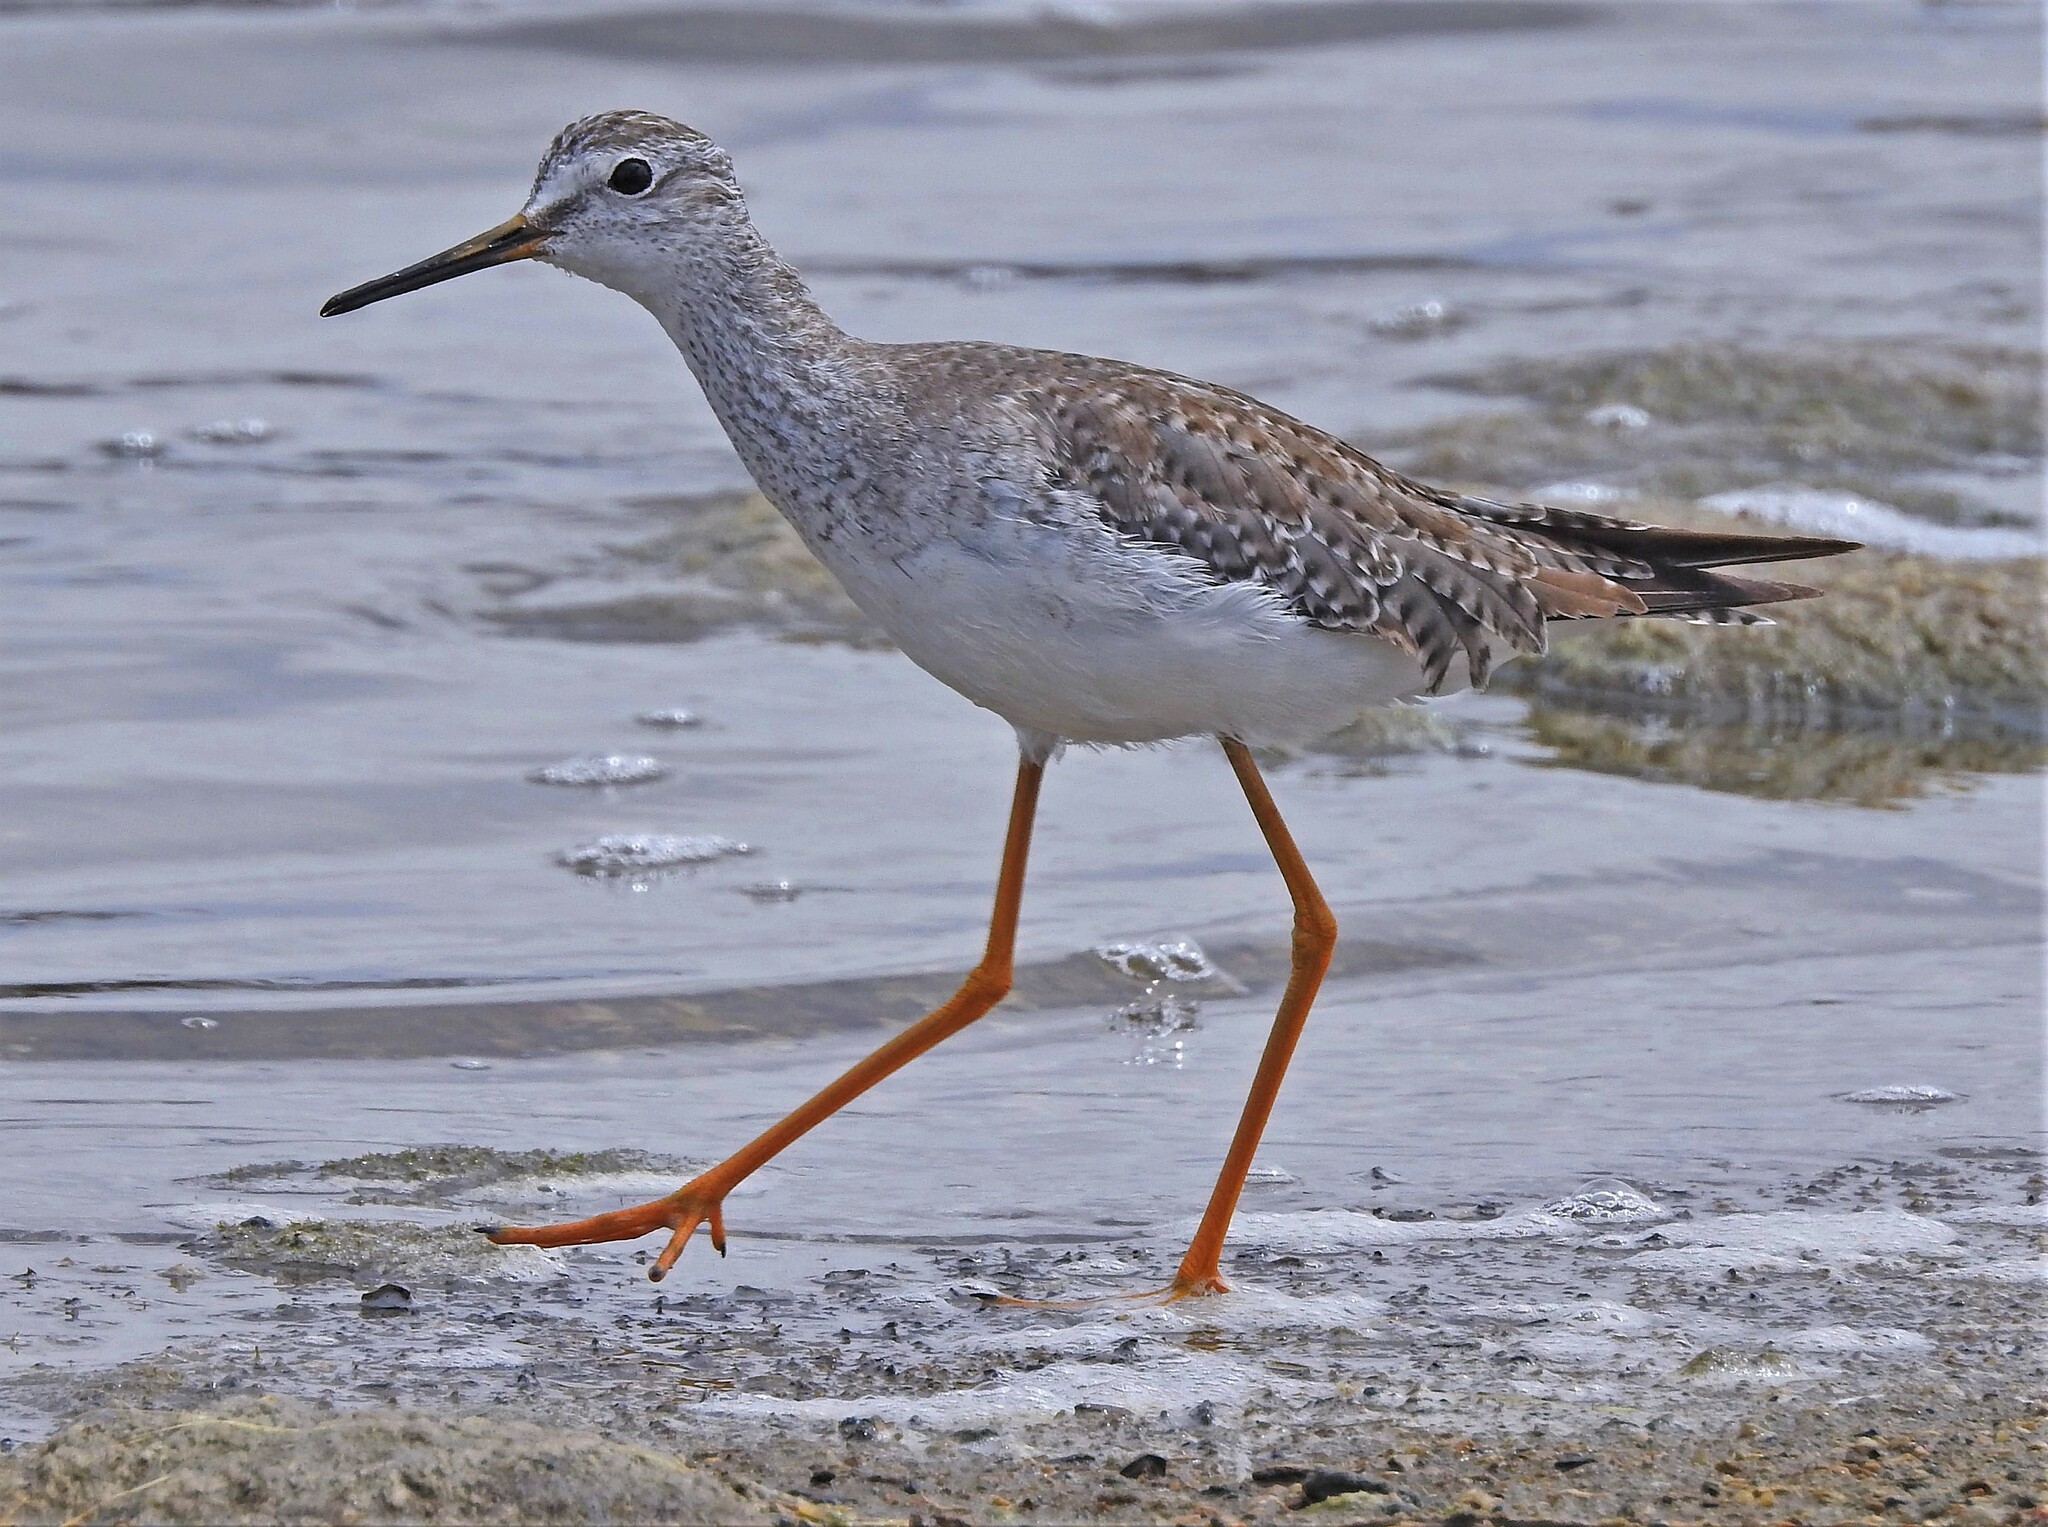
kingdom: Animalia
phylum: Chordata
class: Aves
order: Charadriiformes
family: Scolopacidae
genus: Tringa
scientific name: Tringa flavipes
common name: Lesser yellowlegs
